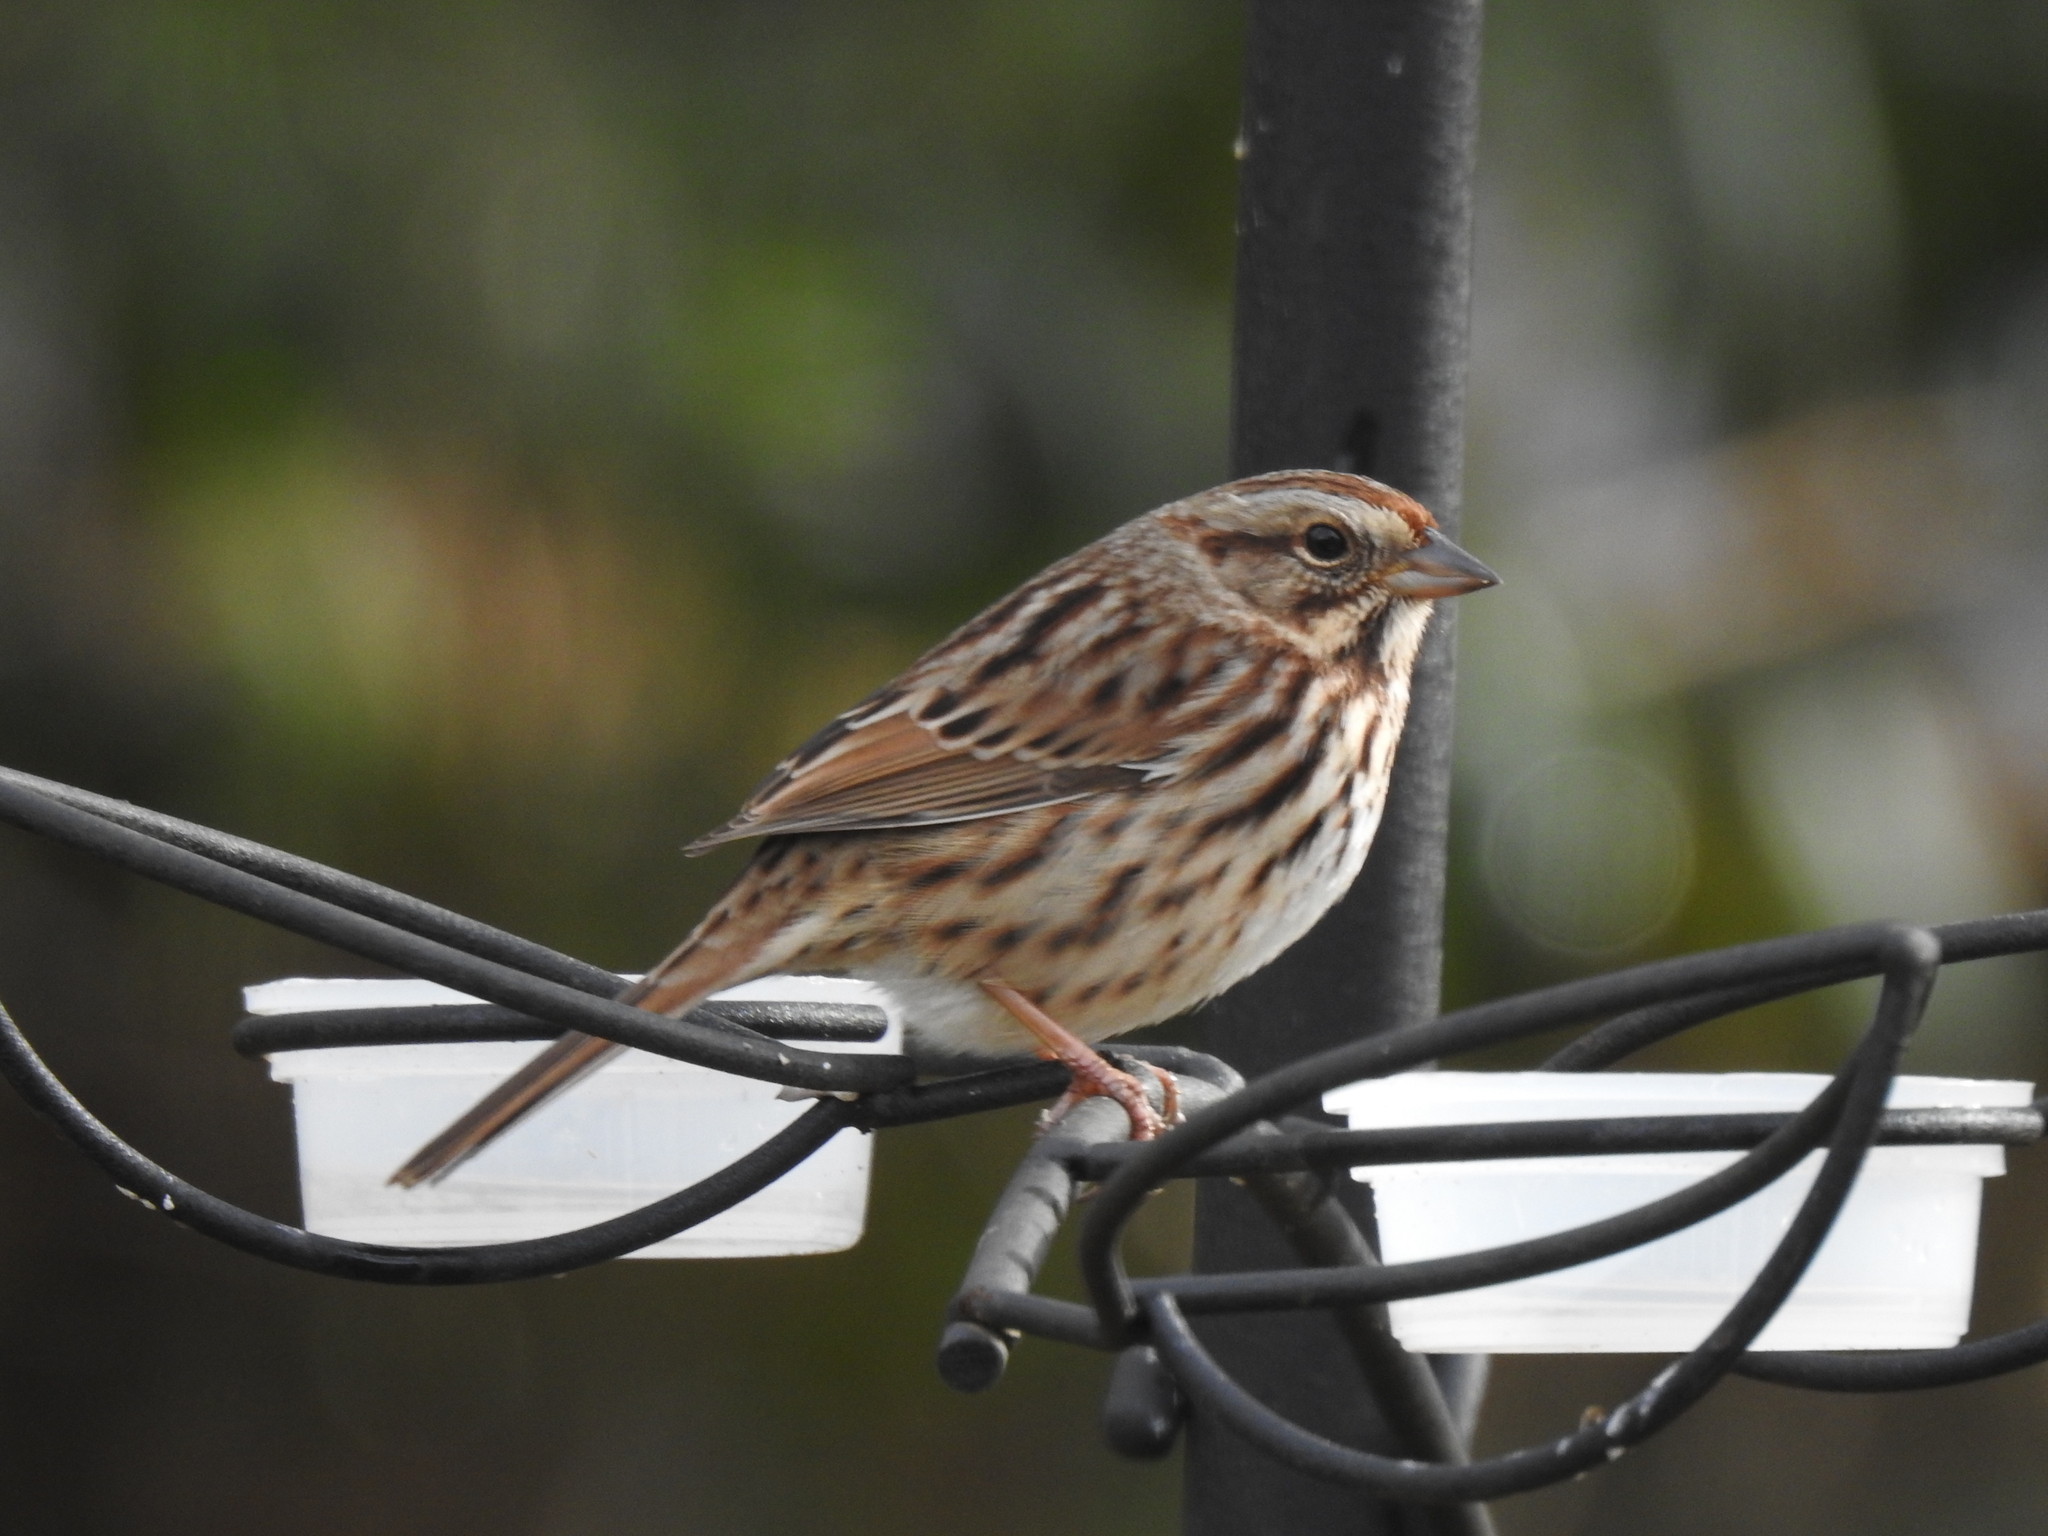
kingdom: Animalia
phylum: Chordata
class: Aves
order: Passeriformes
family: Passerellidae
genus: Melospiza
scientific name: Melospiza melodia
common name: Song sparrow
